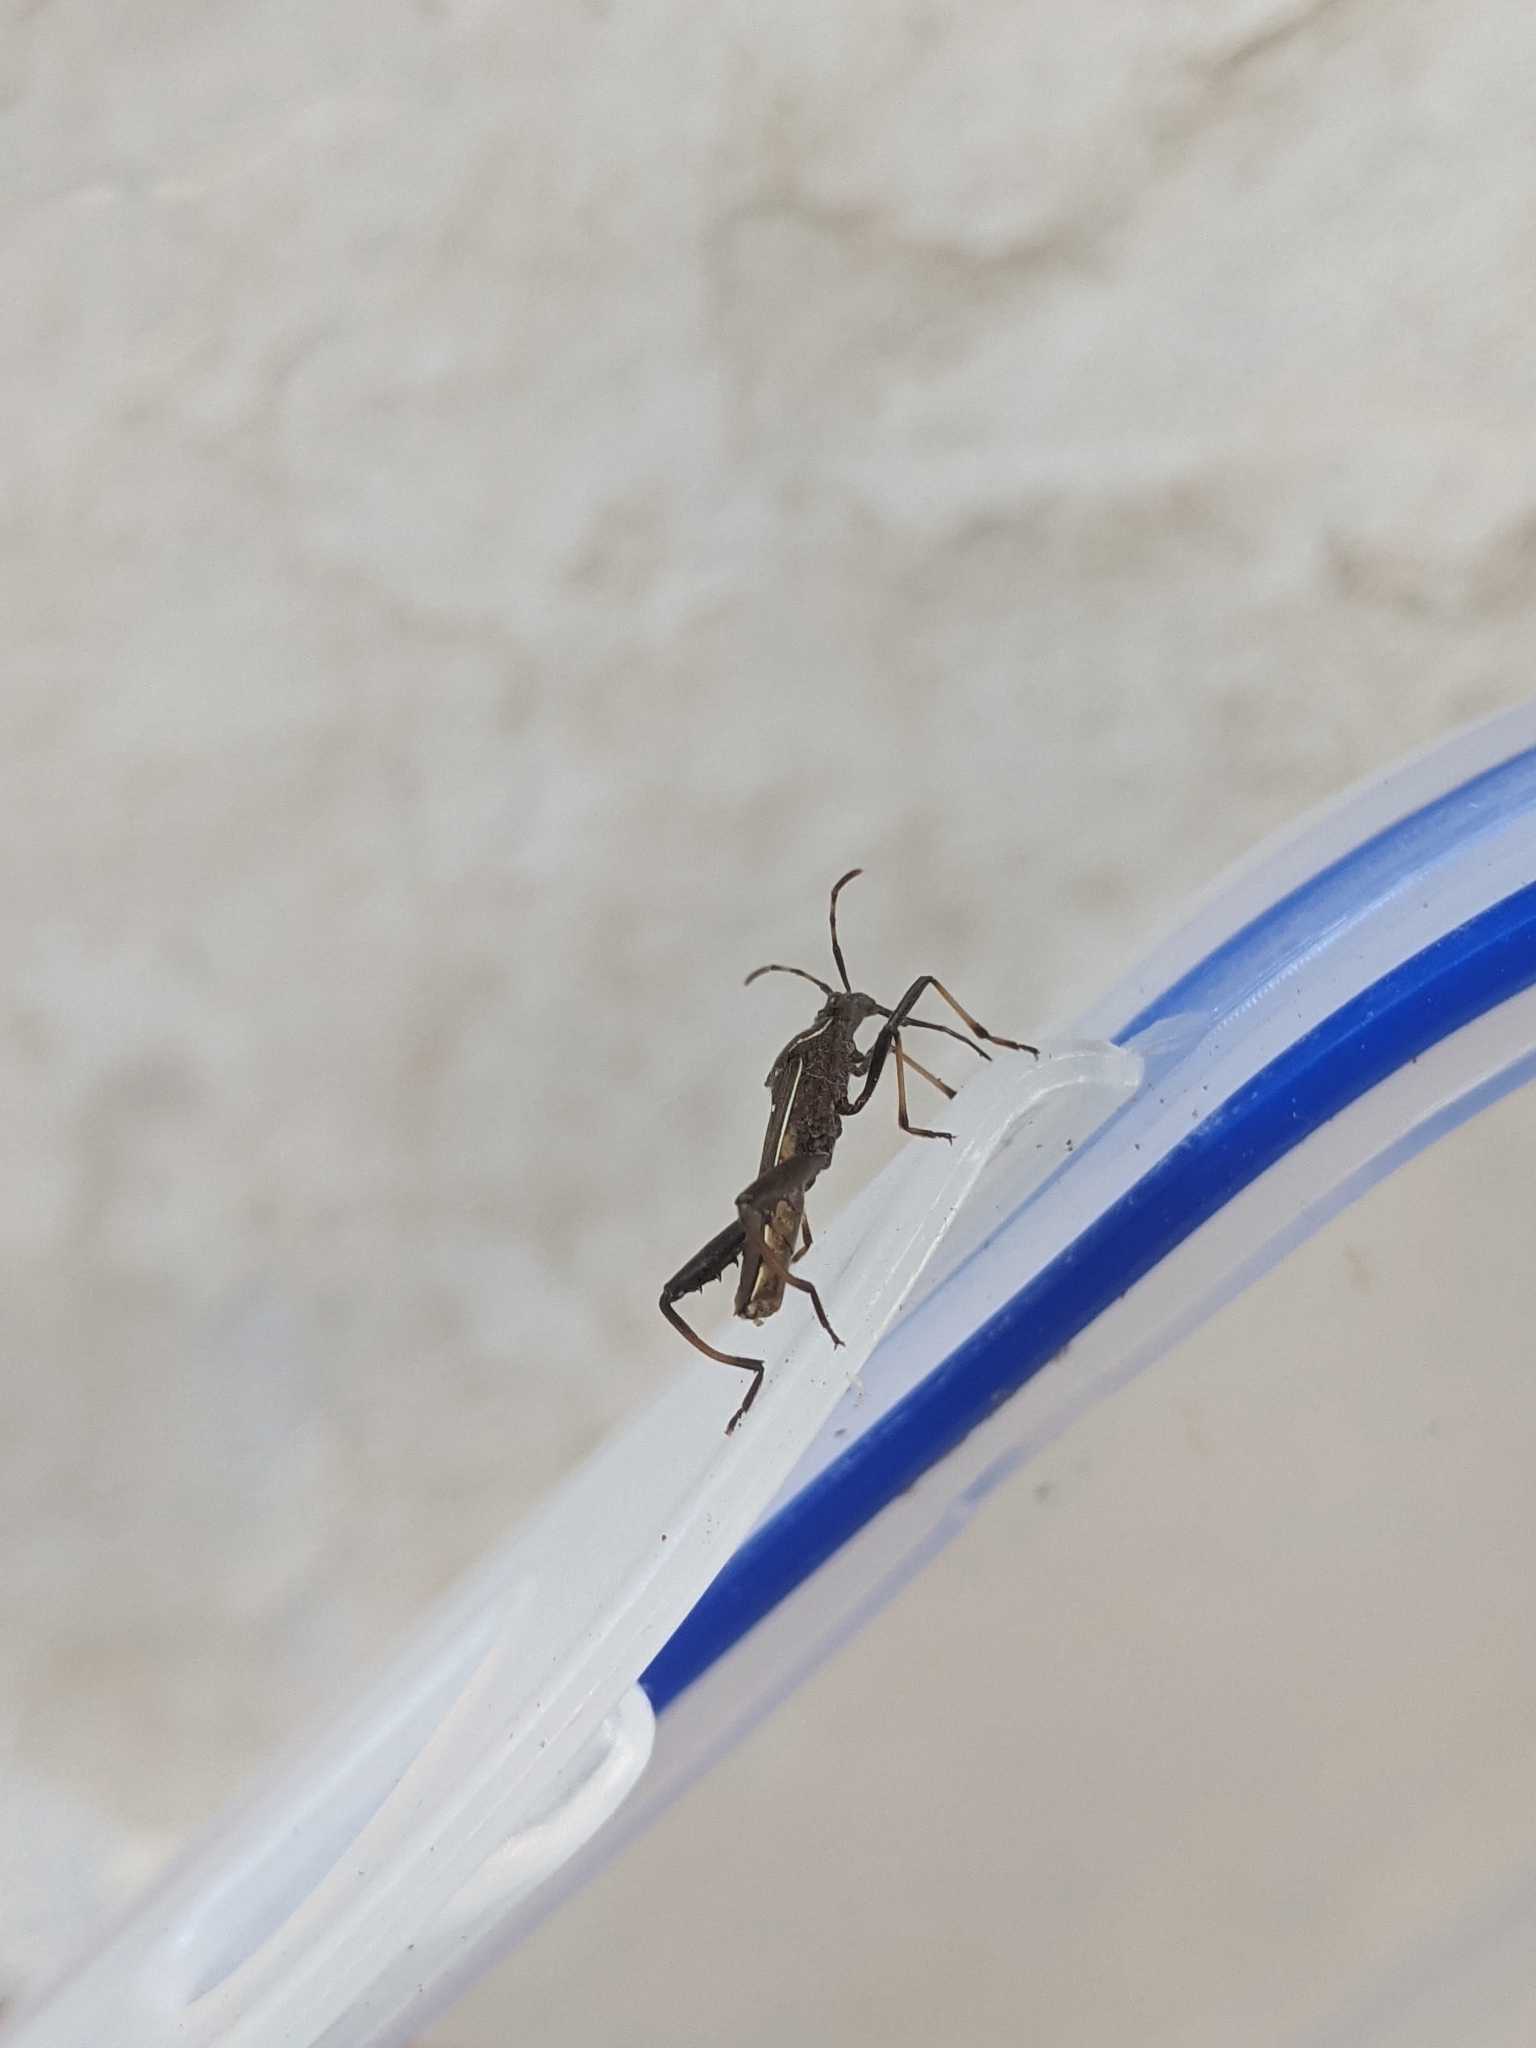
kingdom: Animalia
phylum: Arthropoda
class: Insecta
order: Hemiptera
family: Alydidae
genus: Camptopus
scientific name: Camptopus lateralis
